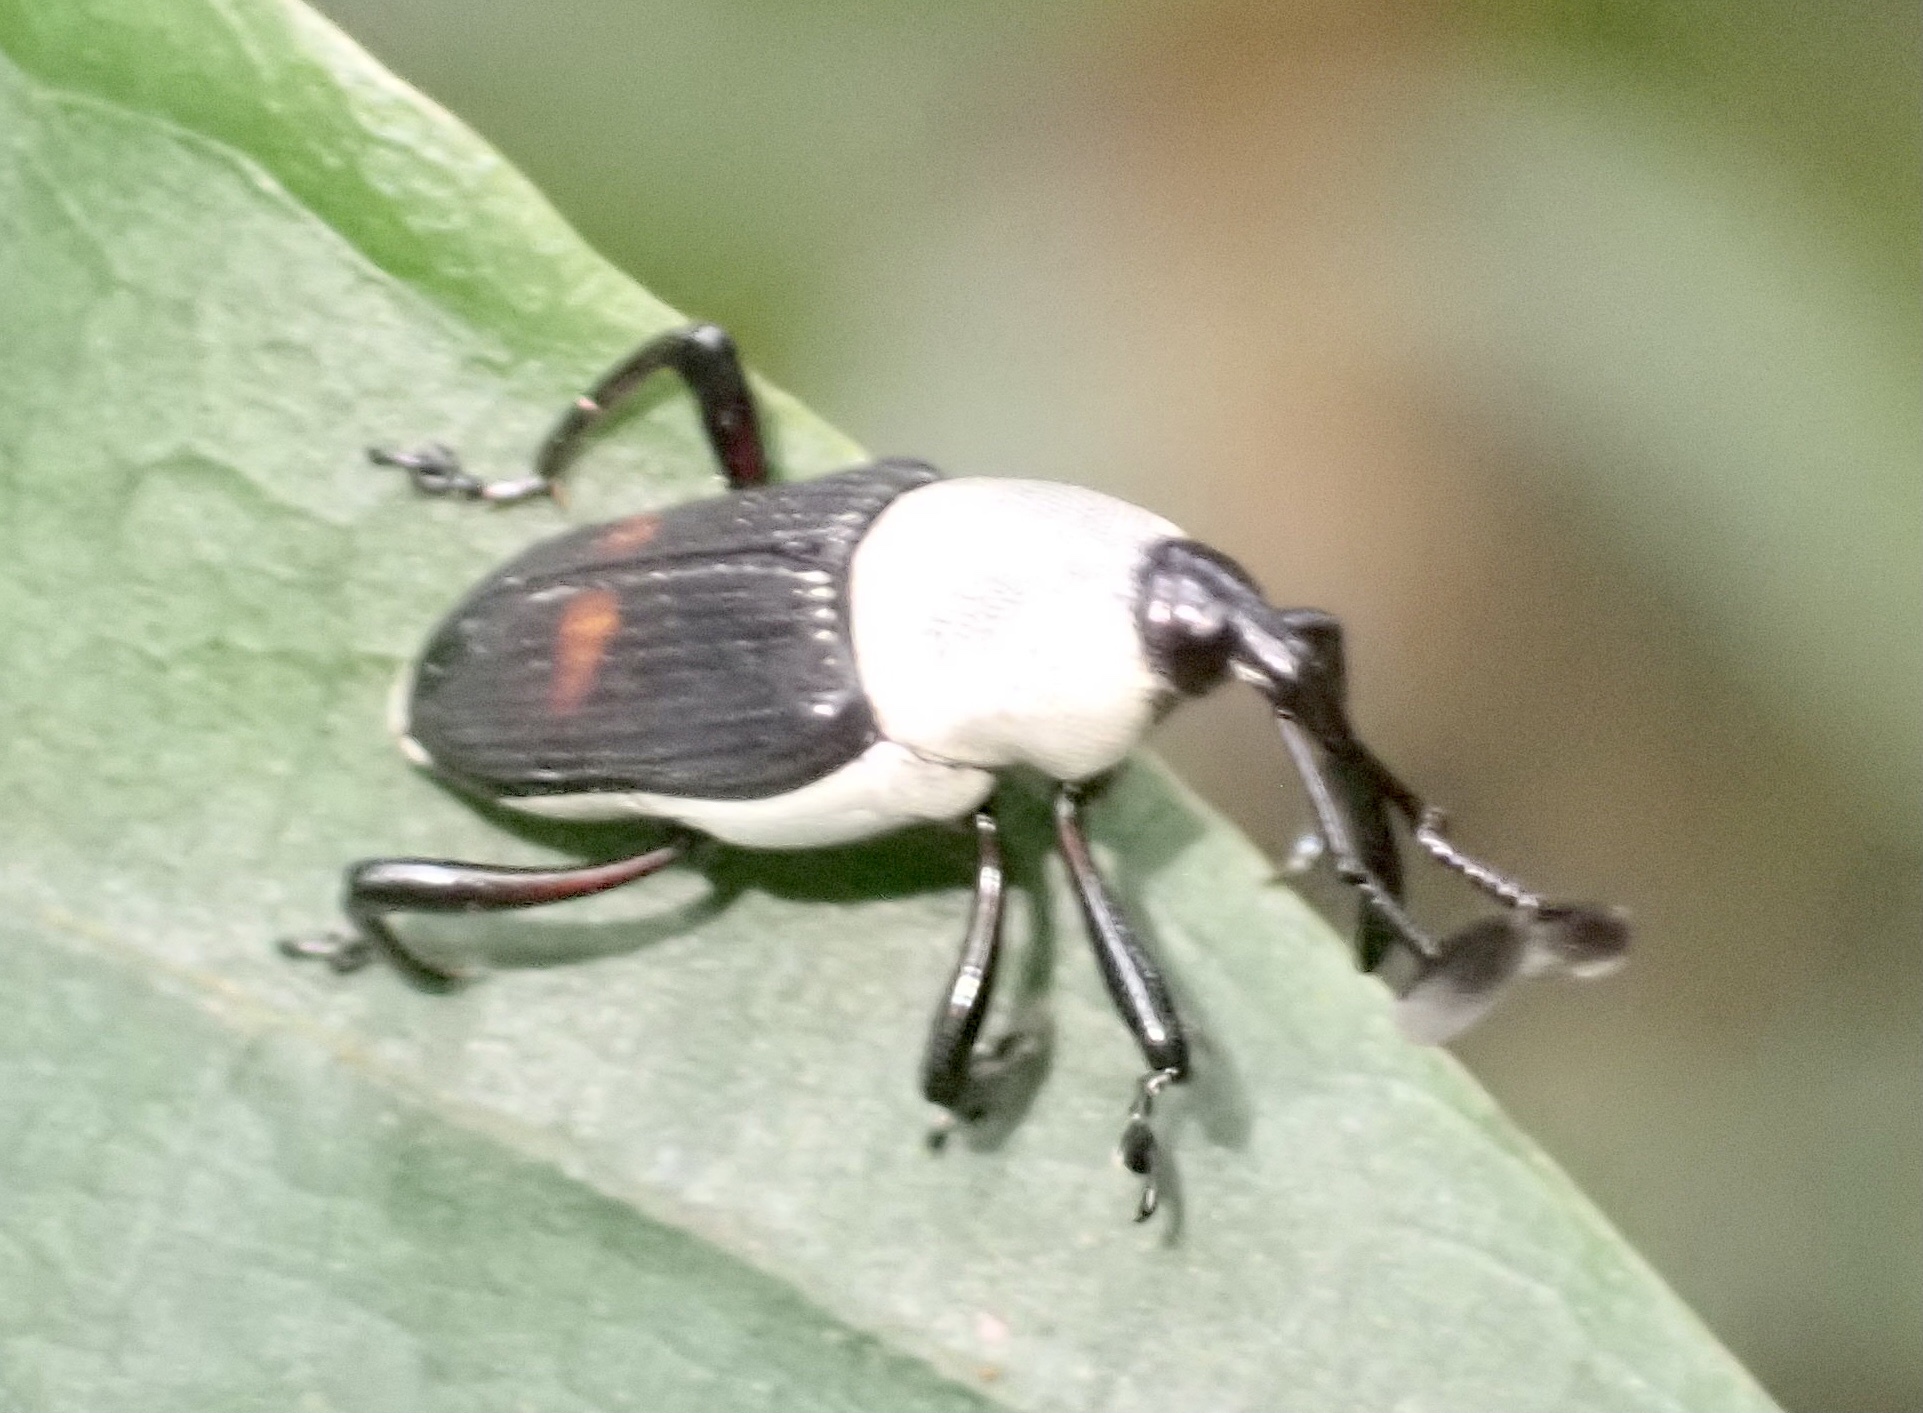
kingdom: Animalia
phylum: Arthropoda
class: Insecta
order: Coleoptera
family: Dryophthoridae
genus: Cercidocerus
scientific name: Cercidocerus albicollis
